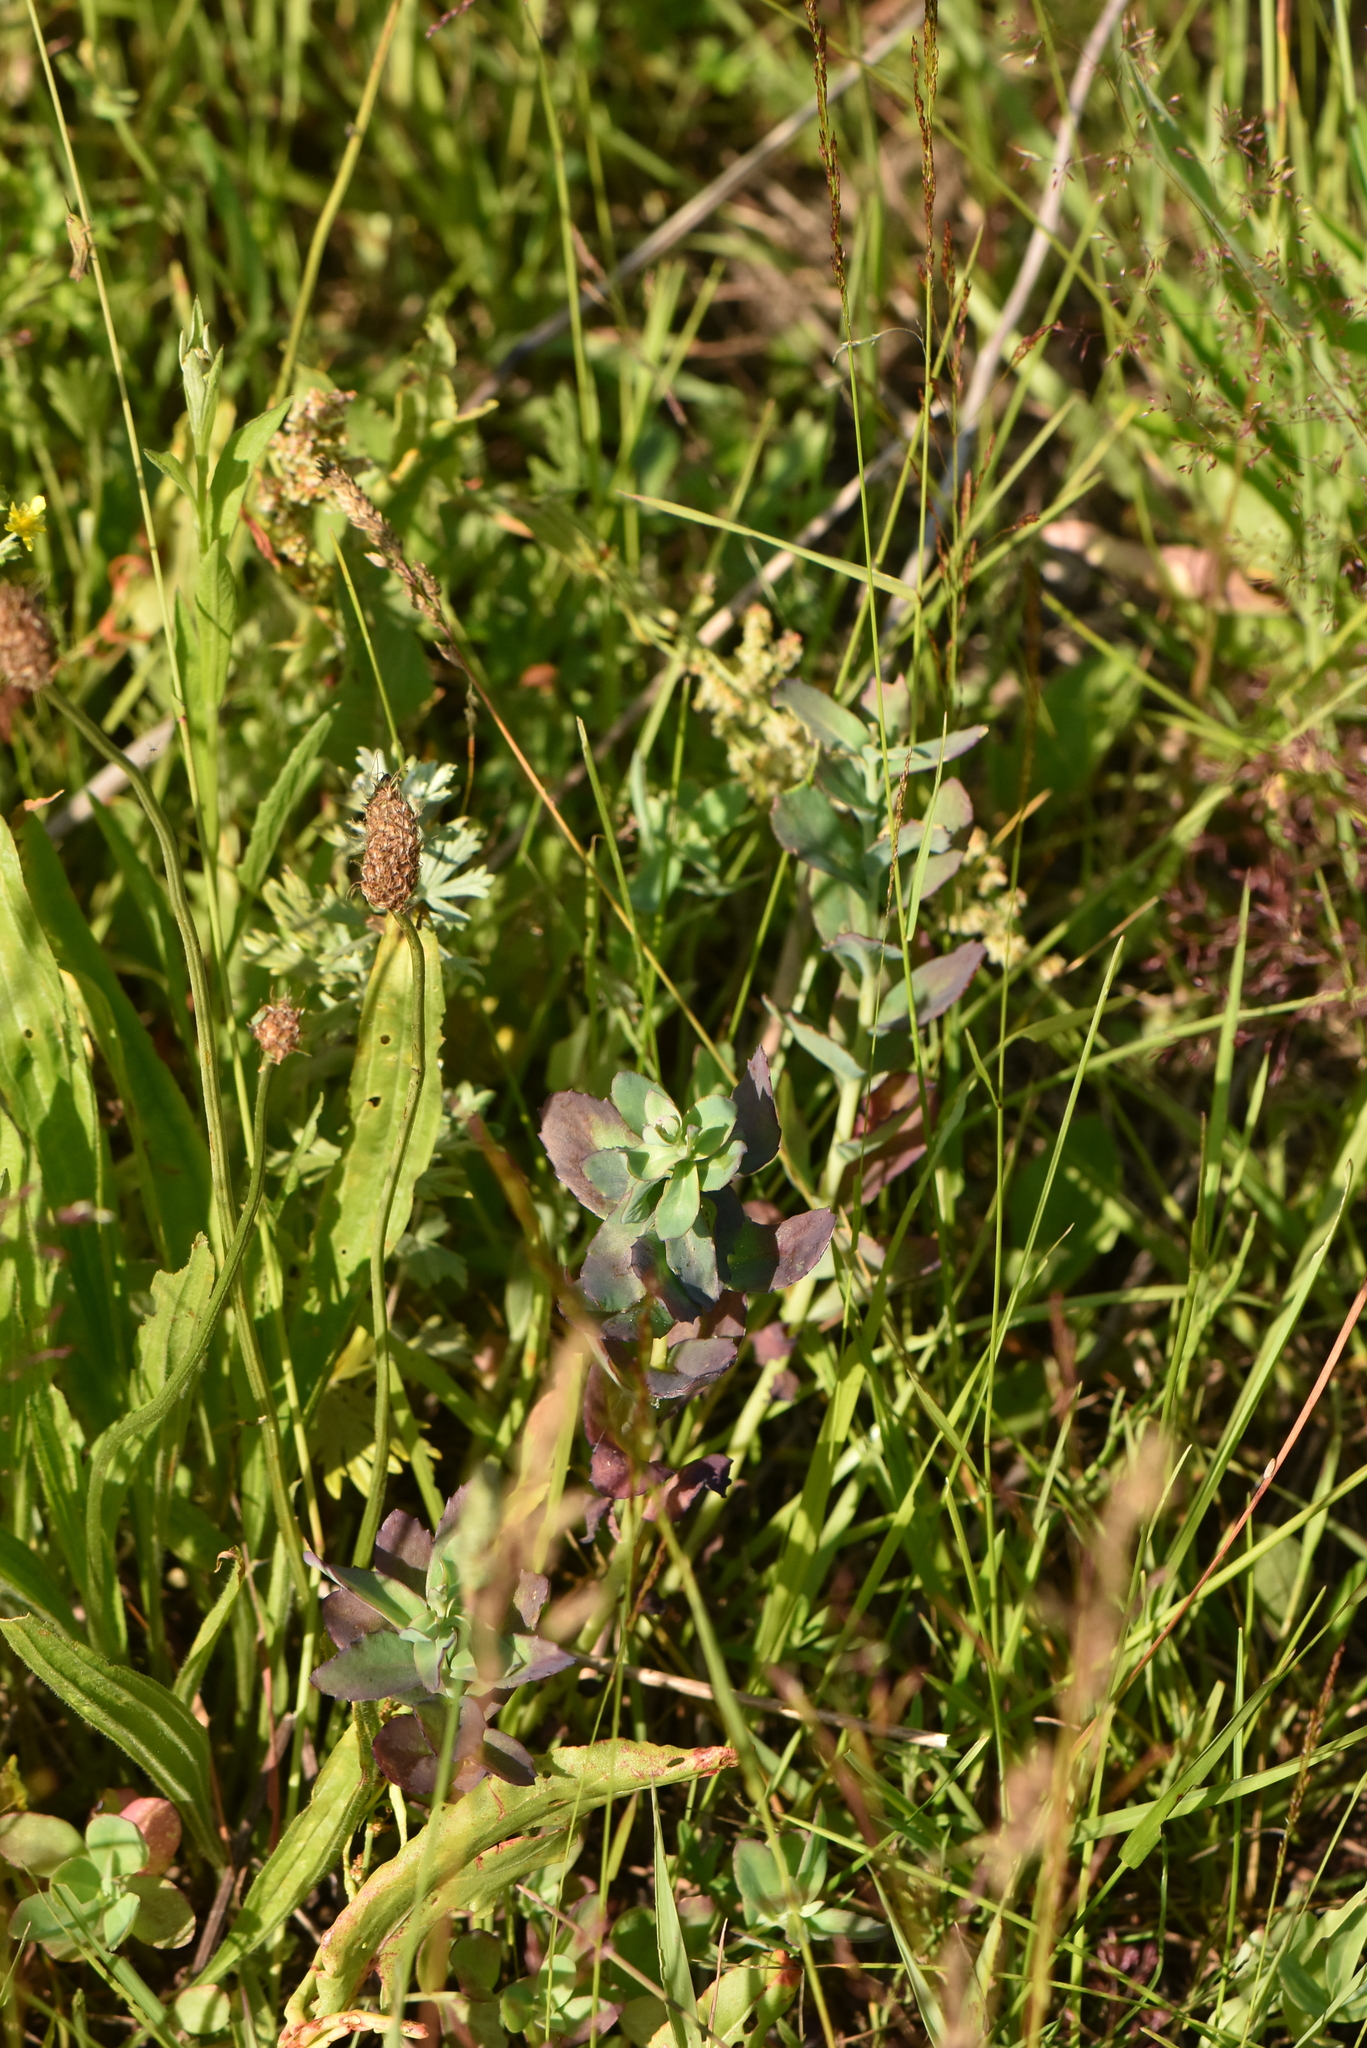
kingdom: Plantae
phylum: Tracheophyta
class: Magnoliopsida
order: Saxifragales
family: Crassulaceae
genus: Hylotelephium
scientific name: Hylotelephium telephium
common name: Live-forever
